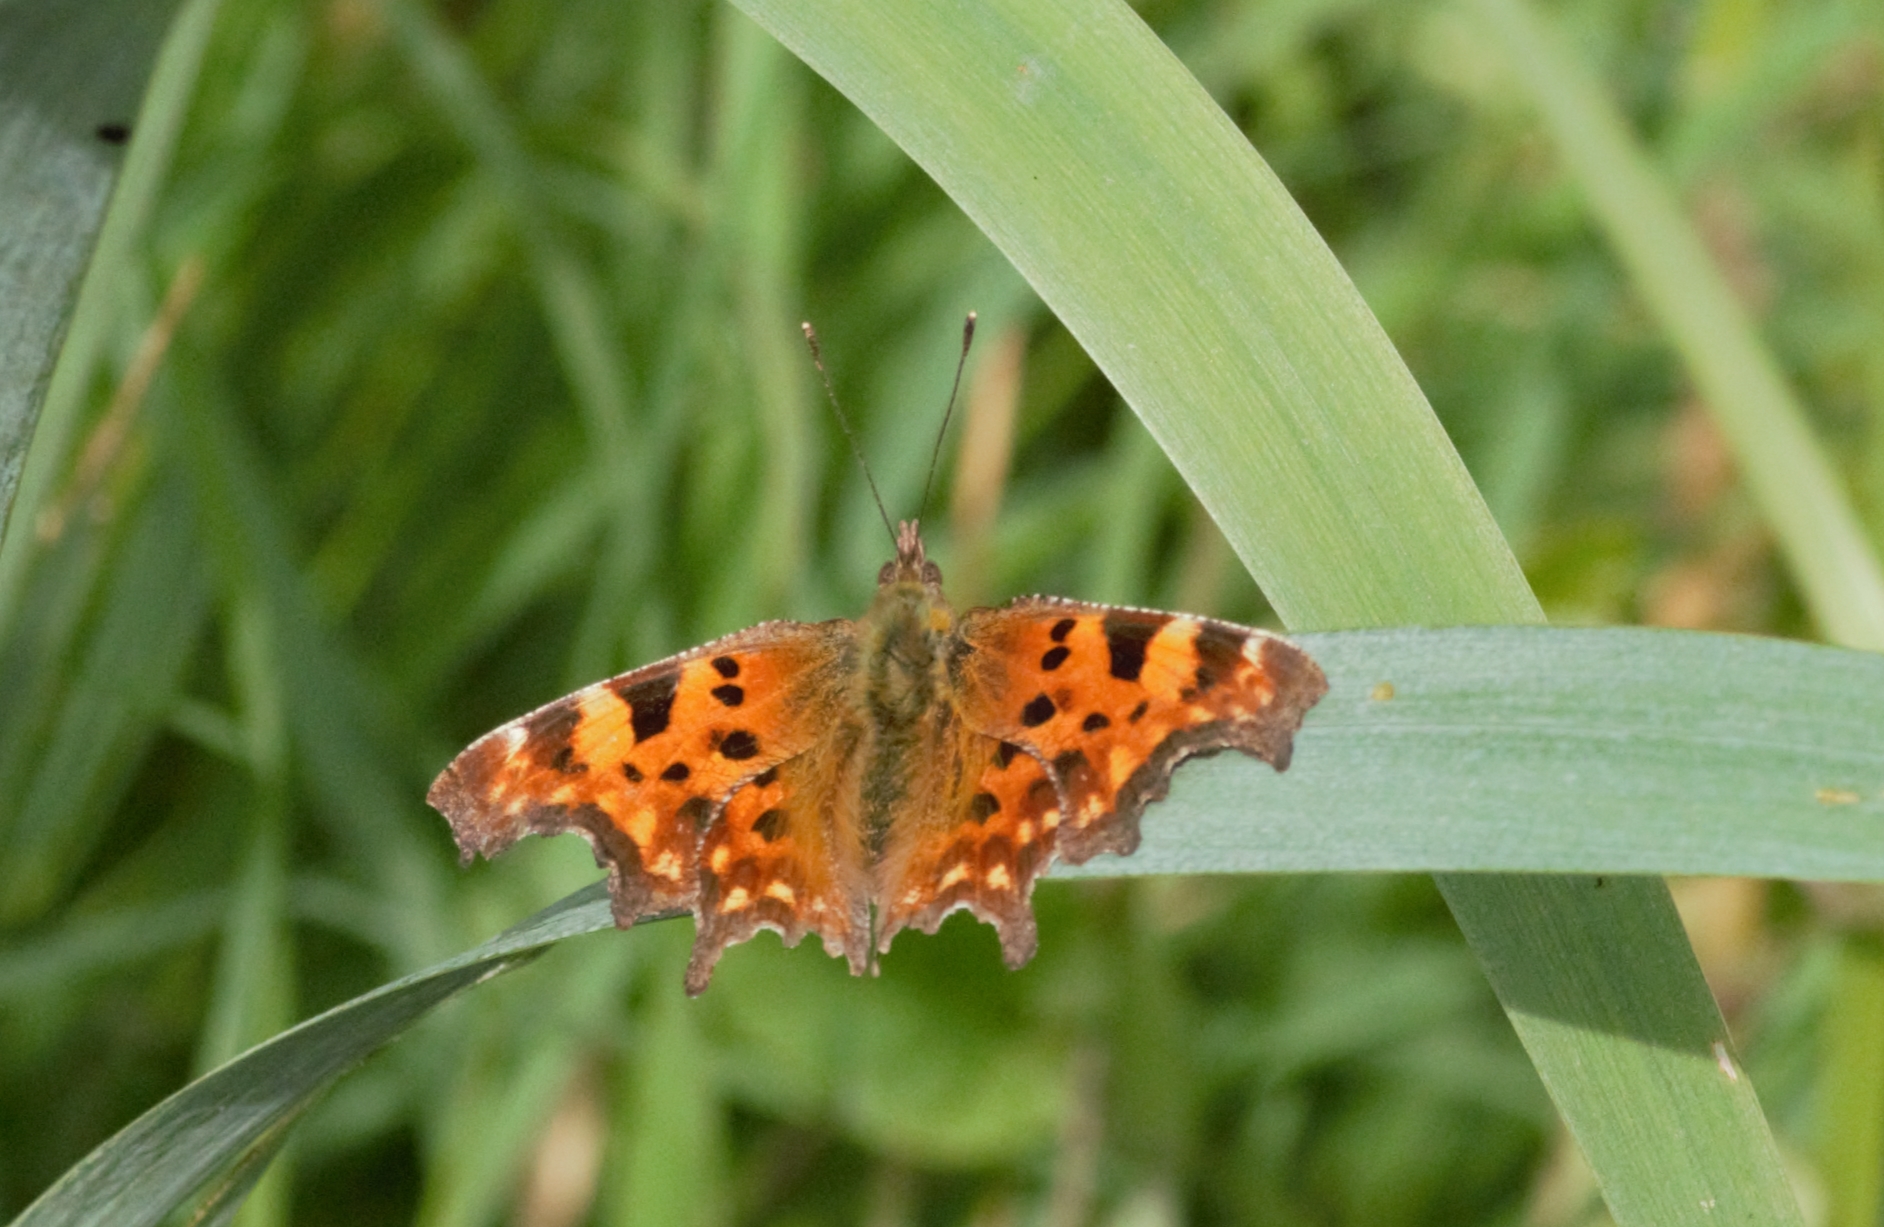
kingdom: Animalia
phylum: Arthropoda
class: Insecta
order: Lepidoptera
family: Nymphalidae
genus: Polygonia
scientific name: Polygonia c-album
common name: Comma
